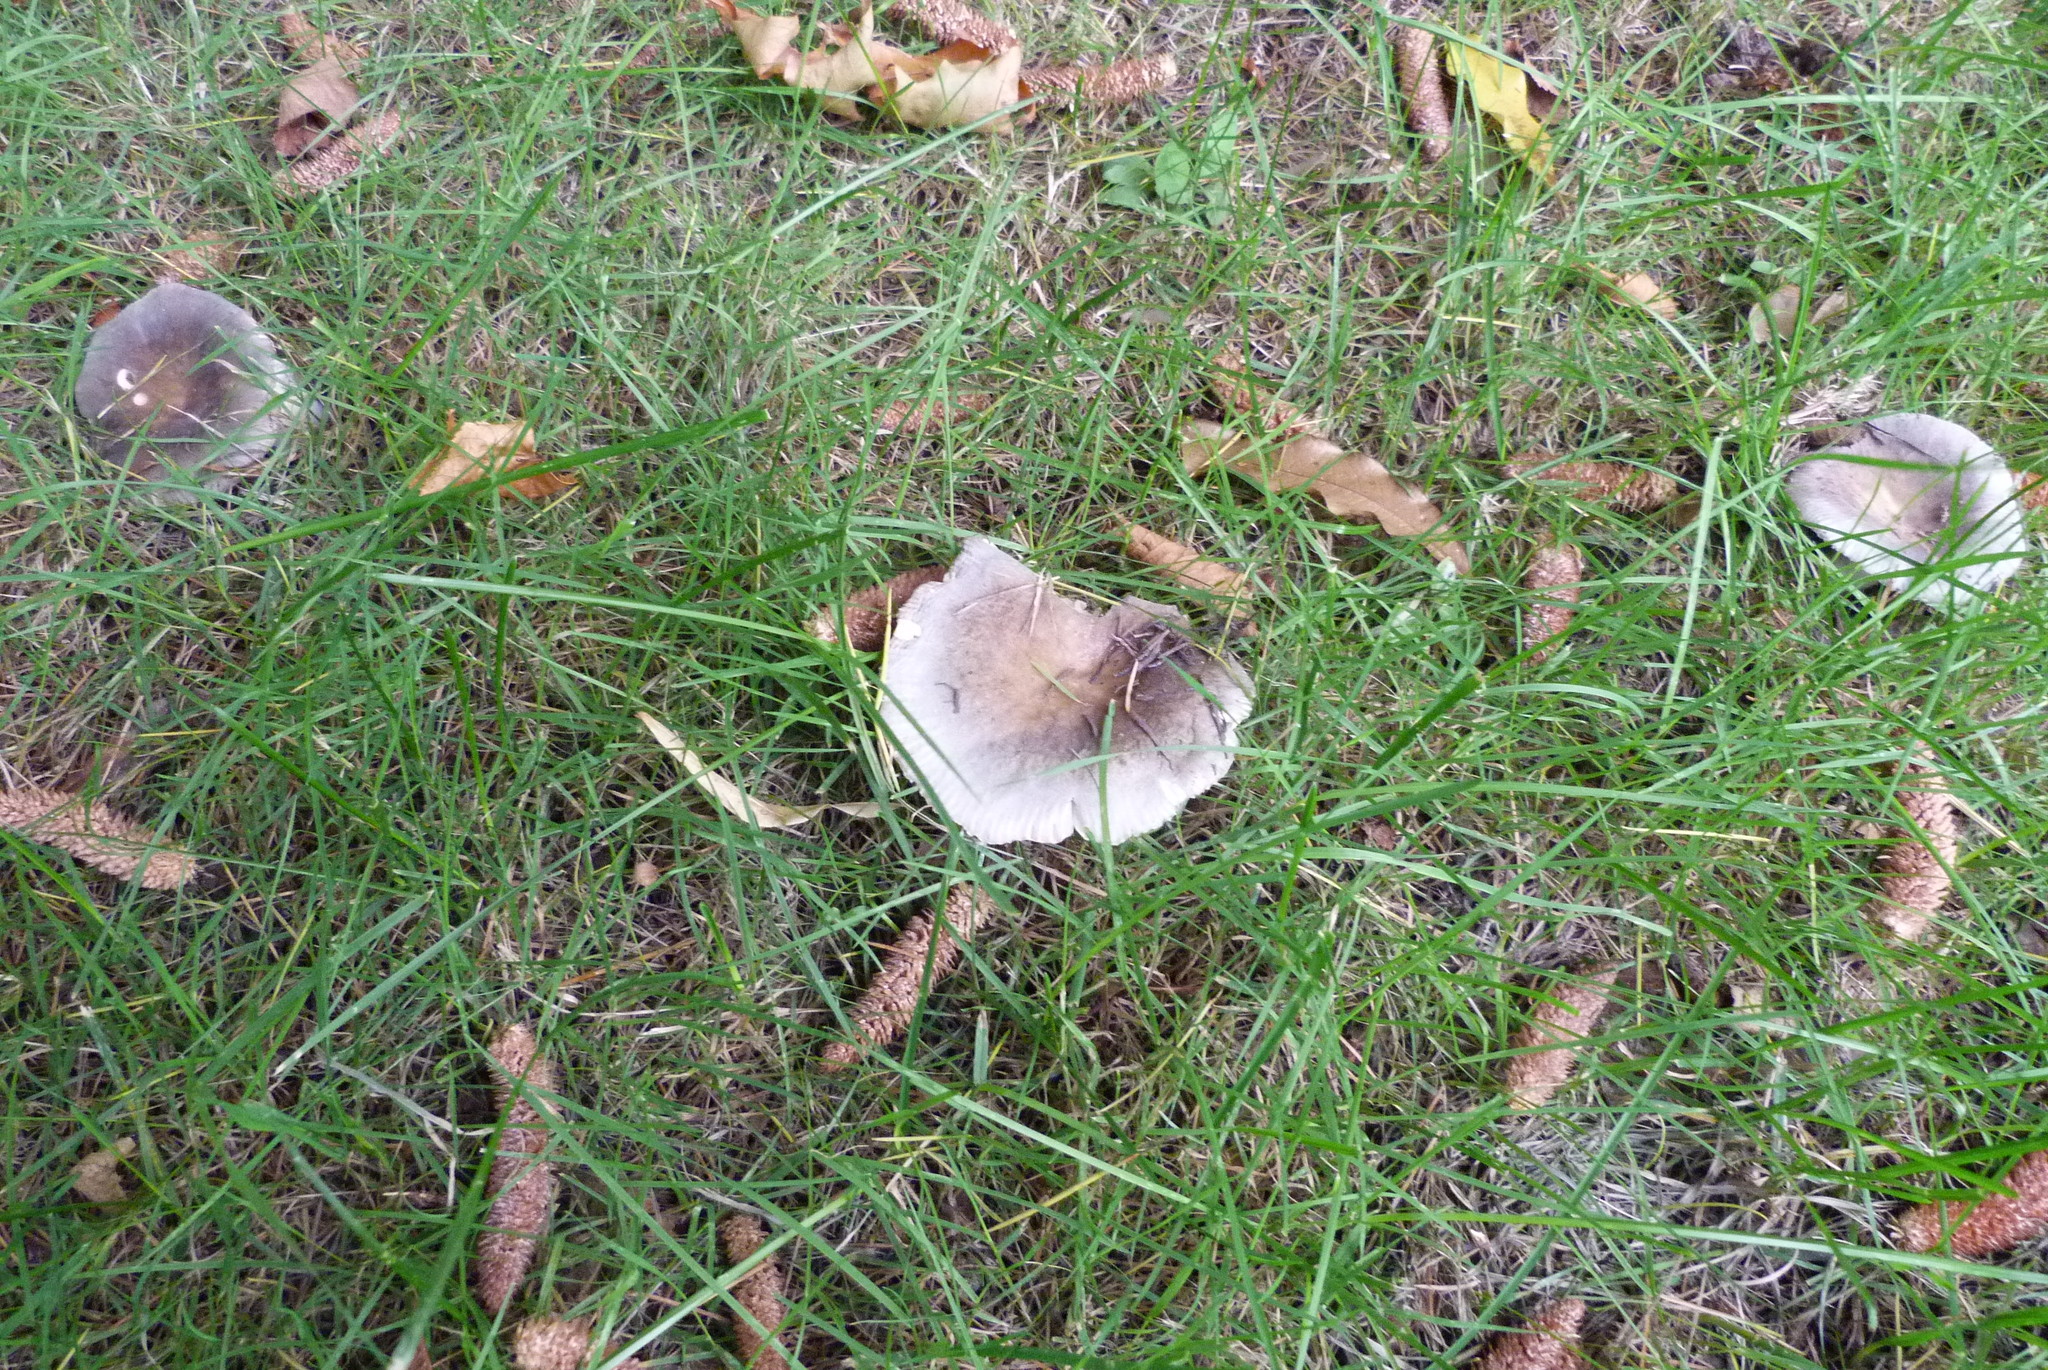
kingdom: Fungi
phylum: Basidiomycota
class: Agaricomycetes
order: Russulales
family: Russulaceae
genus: Russula
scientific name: Russula grisea
